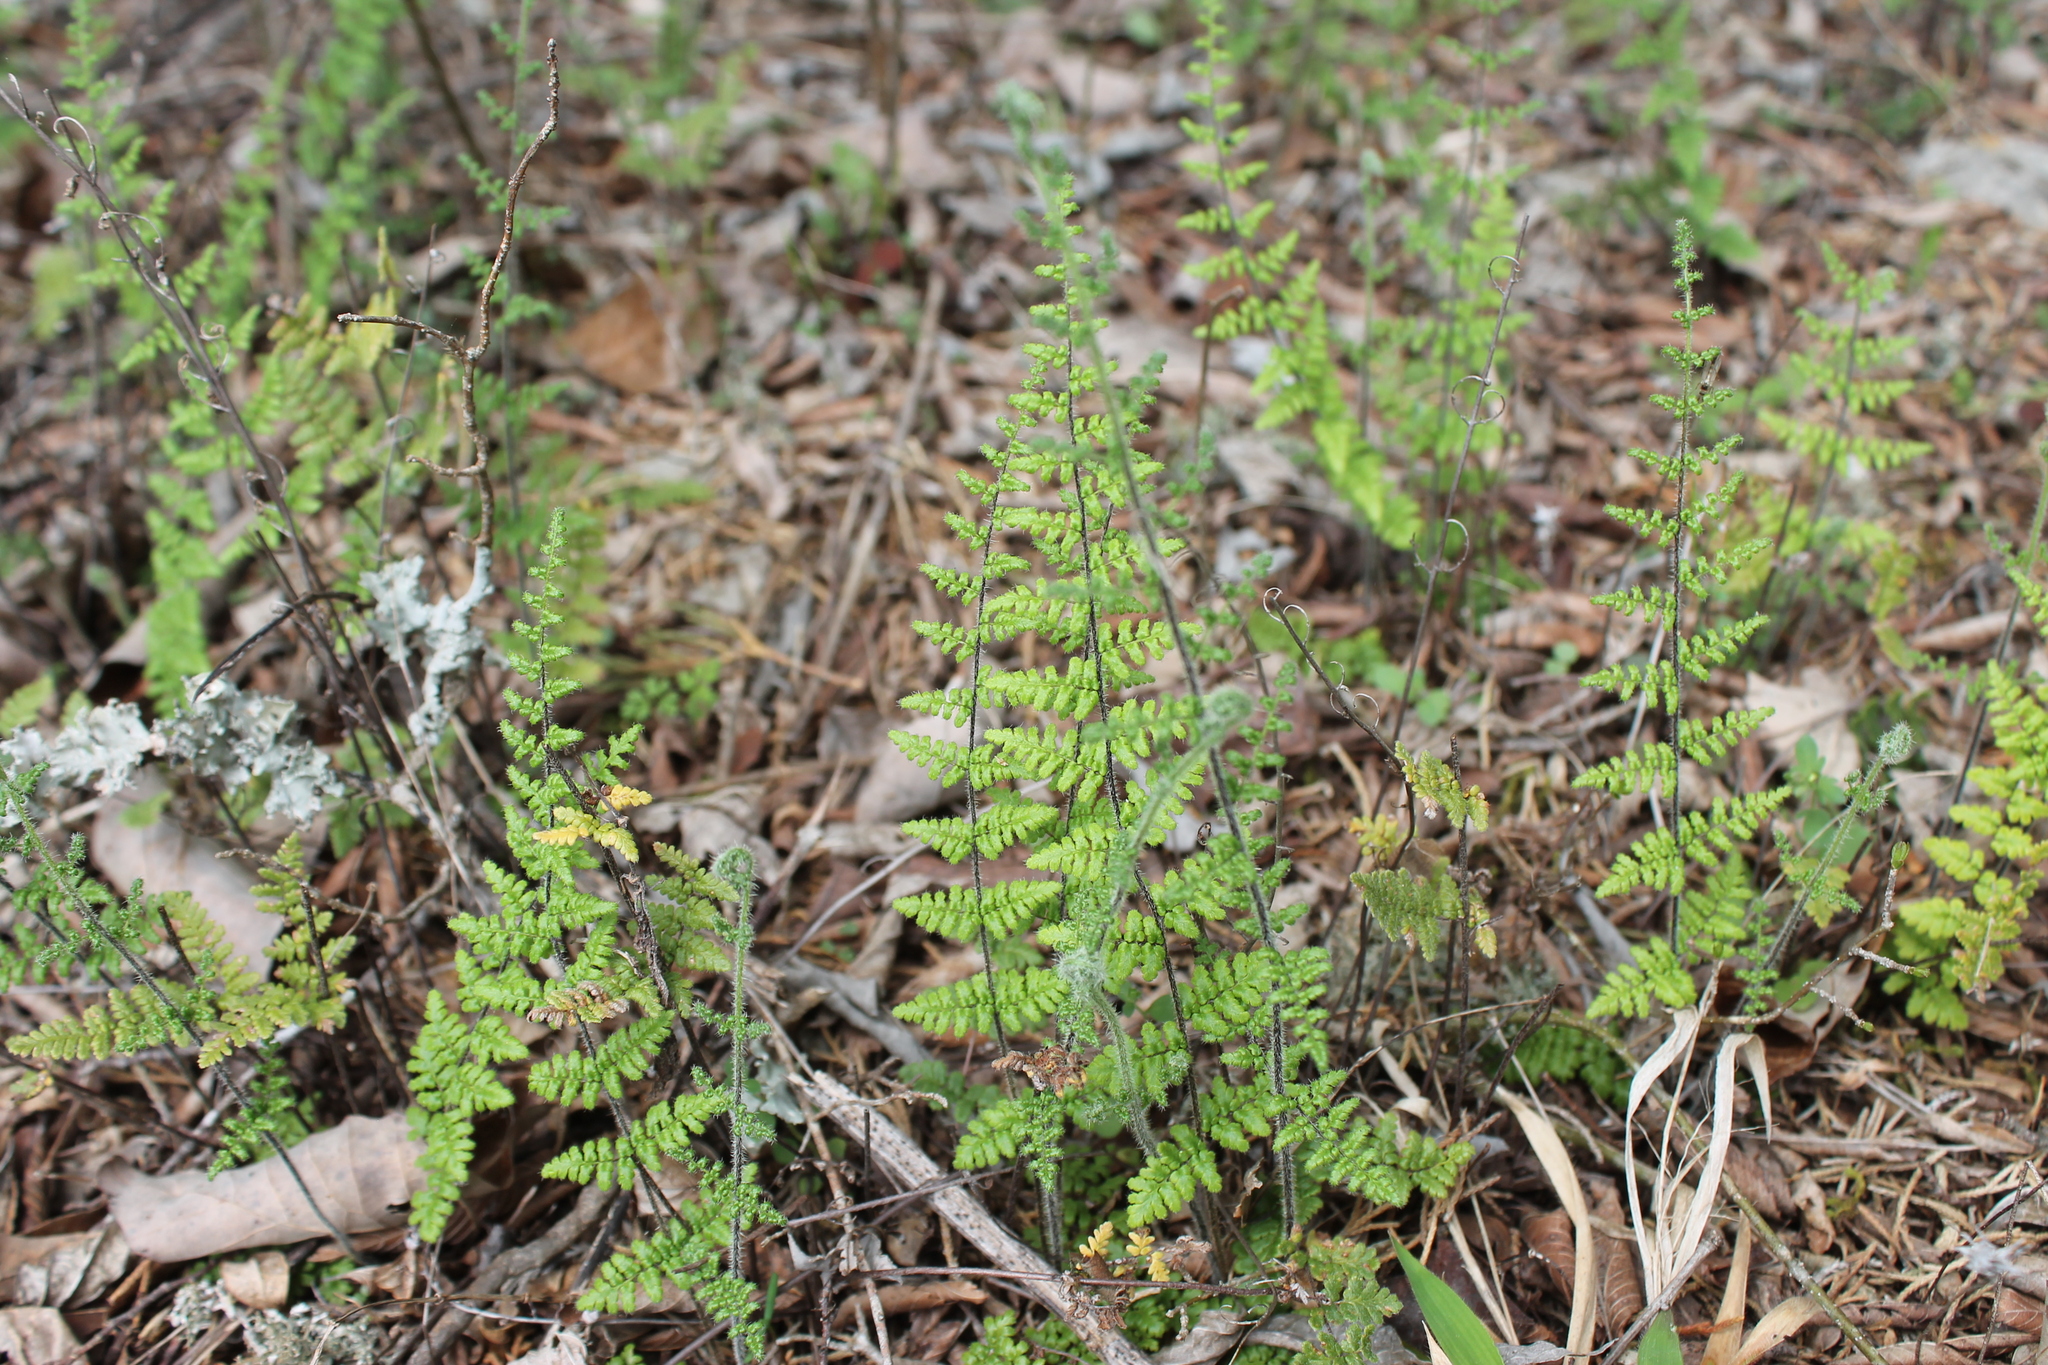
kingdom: Plantae
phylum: Tracheophyta
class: Polypodiopsida
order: Polypodiales
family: Pteridaceae
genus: Myriopteris
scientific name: Myriopteris lanosa
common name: Hairy lip fern
